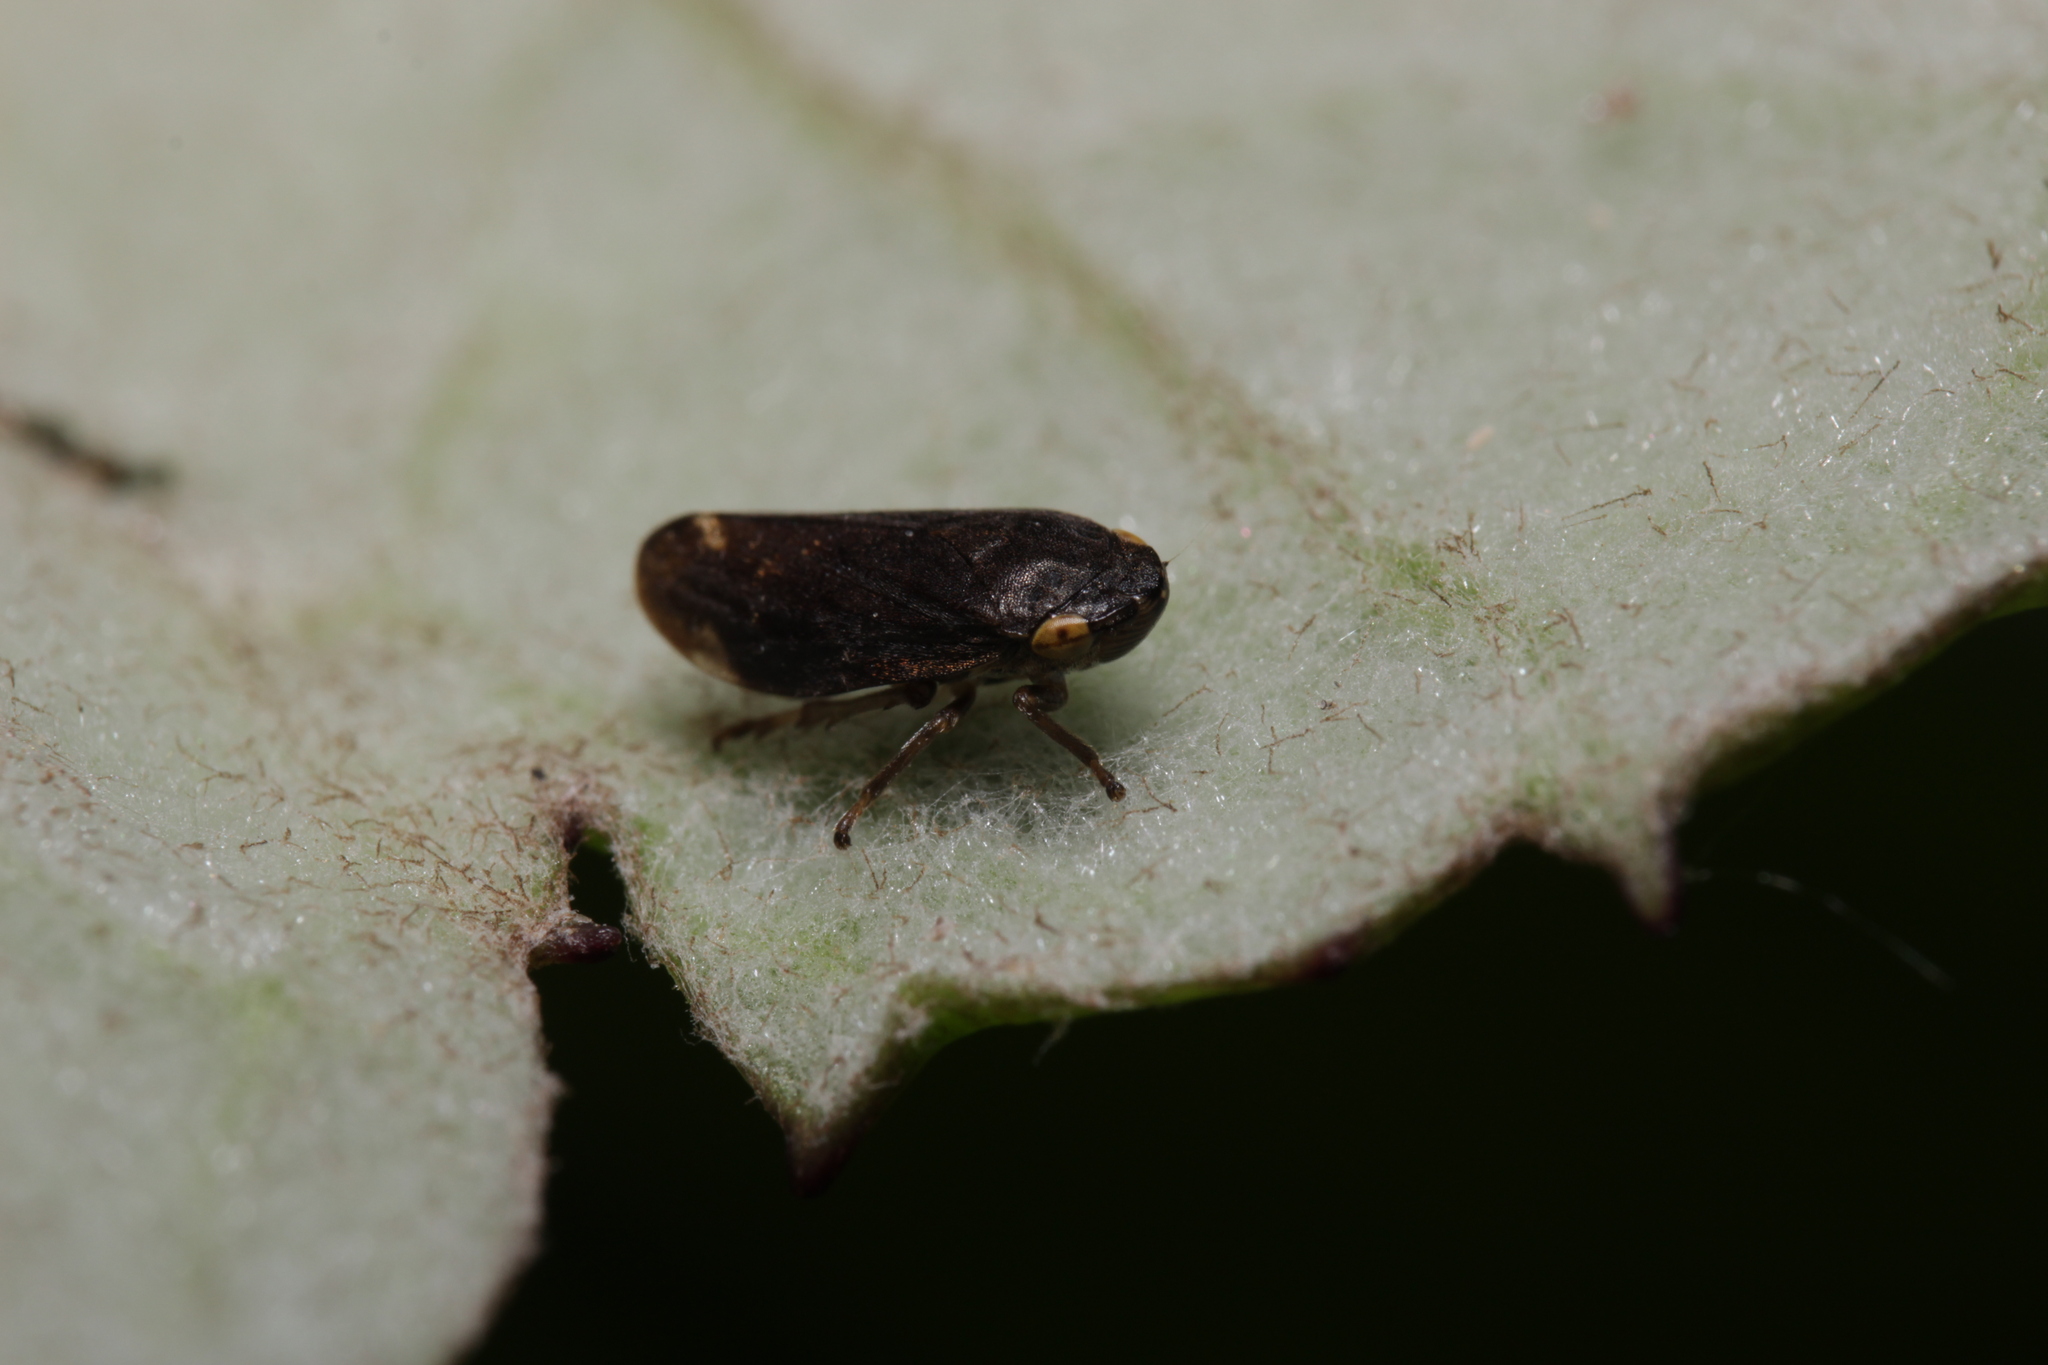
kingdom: Animalia
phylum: Arthropoda
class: Insecta
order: Hemiptera
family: Aphrophoridae
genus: Philaenus
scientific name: Philaenus spumarius
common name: Meadow spittlebug
